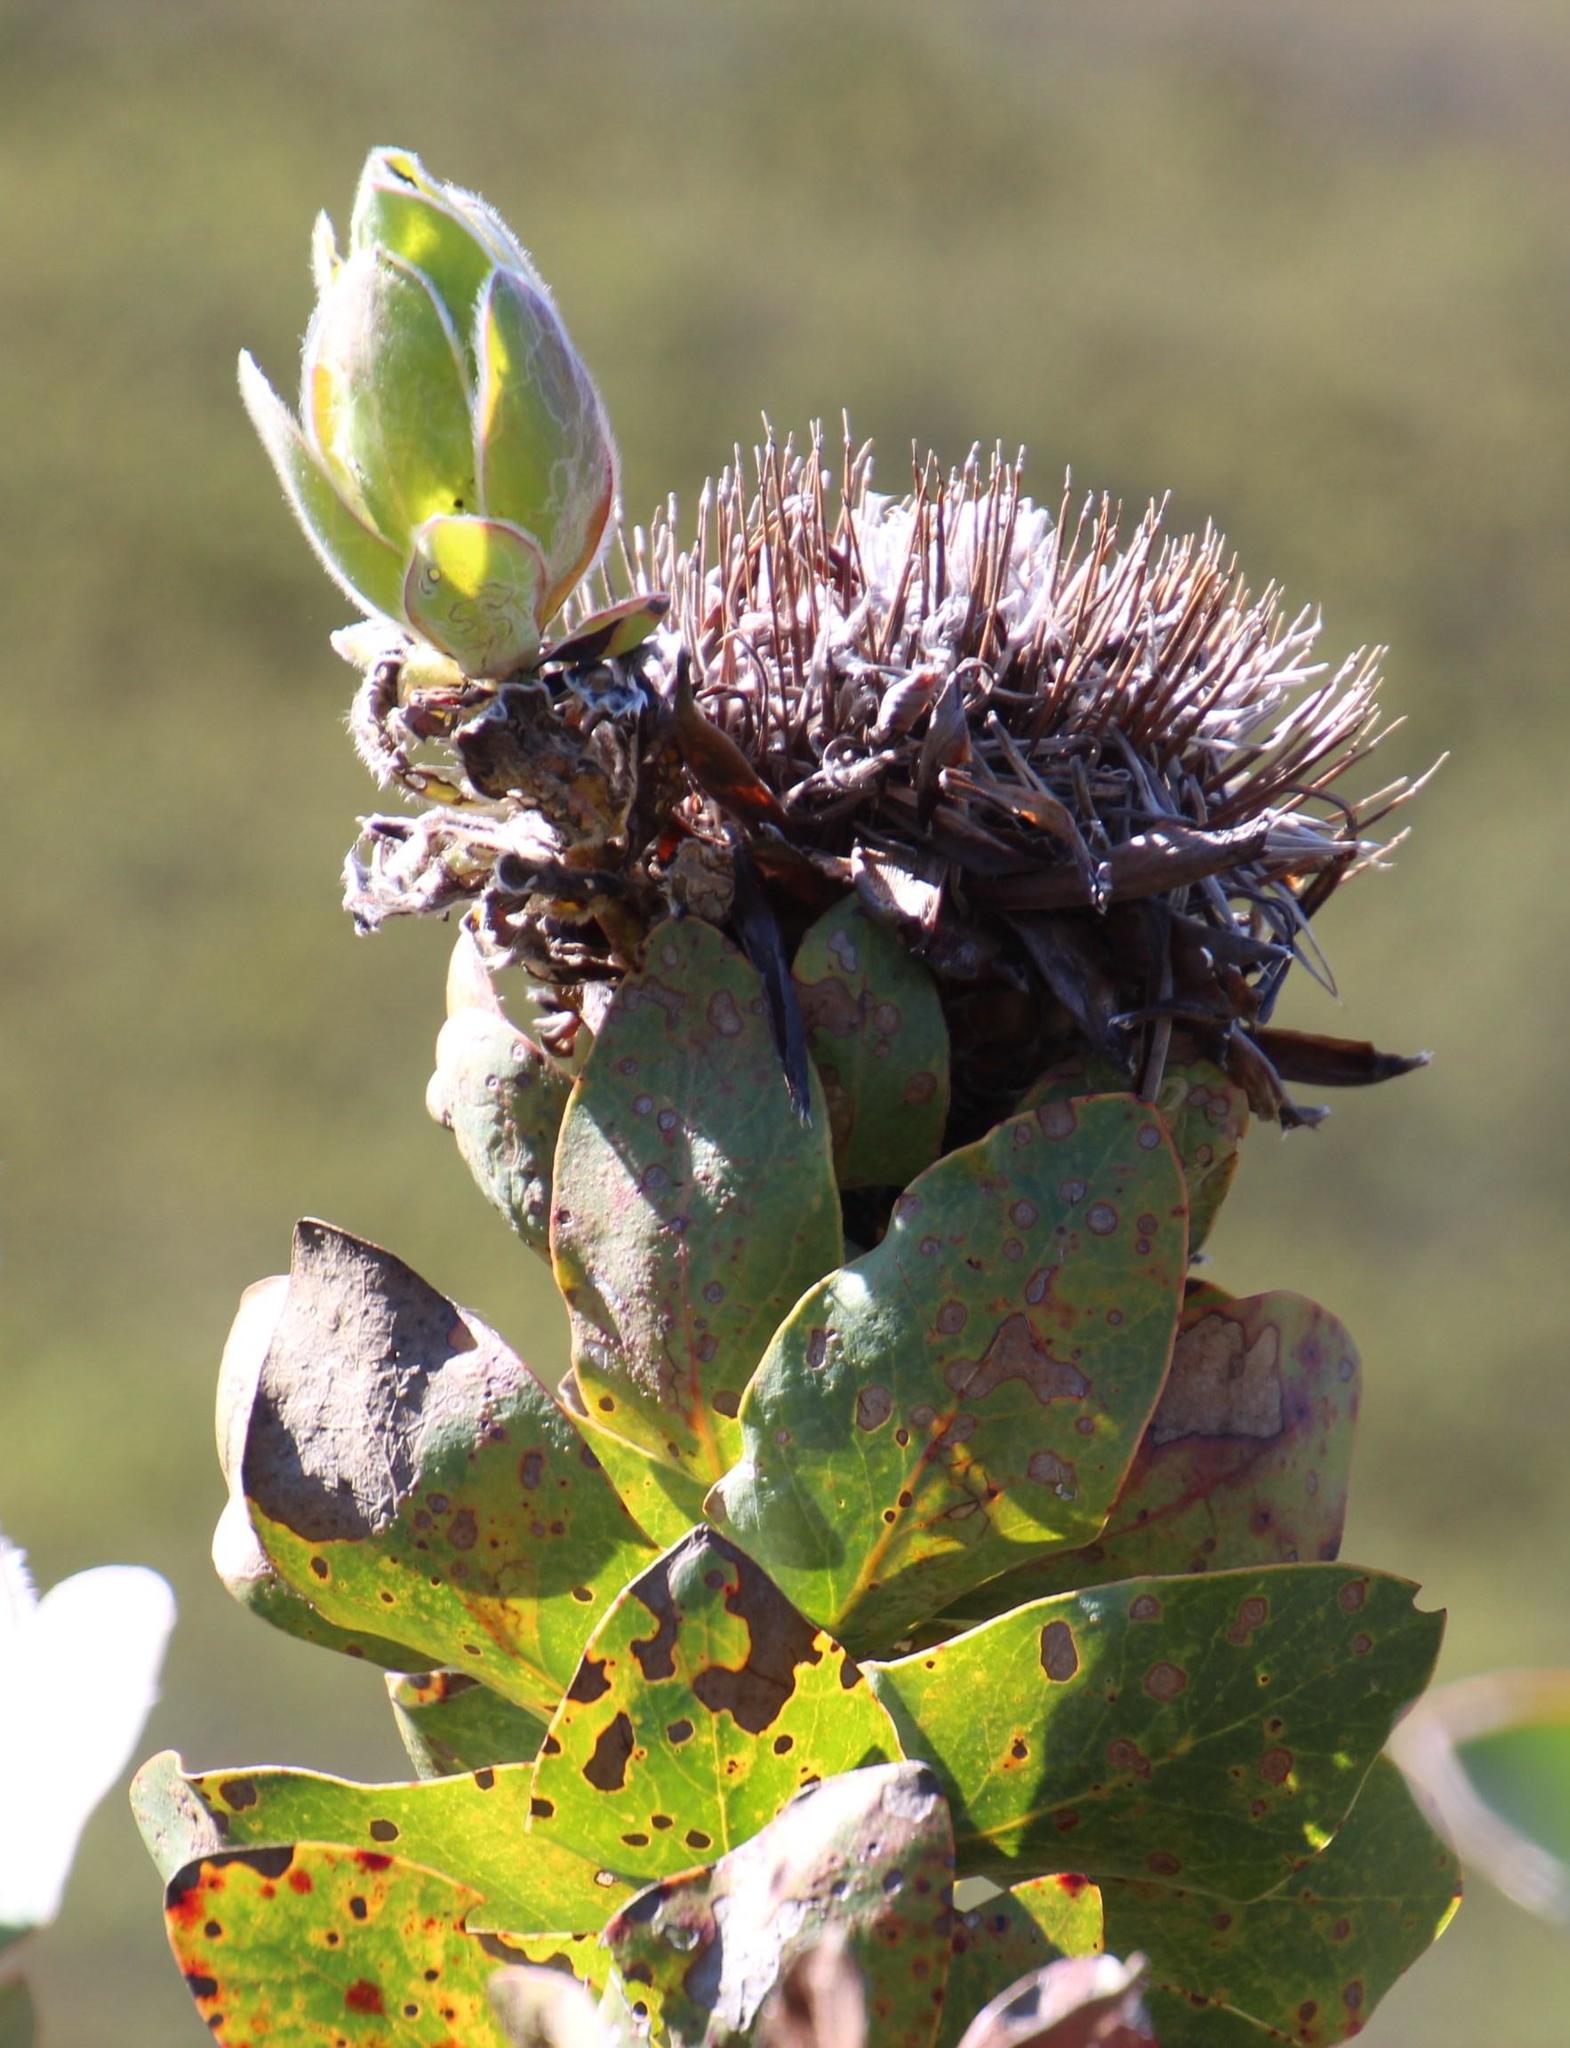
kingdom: Plantae
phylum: Tracheophyta
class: Magnoliopsida
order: Proteales
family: Proteaceae
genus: Protea
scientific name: Protea eximia
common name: Broad-leaved sugarbush
